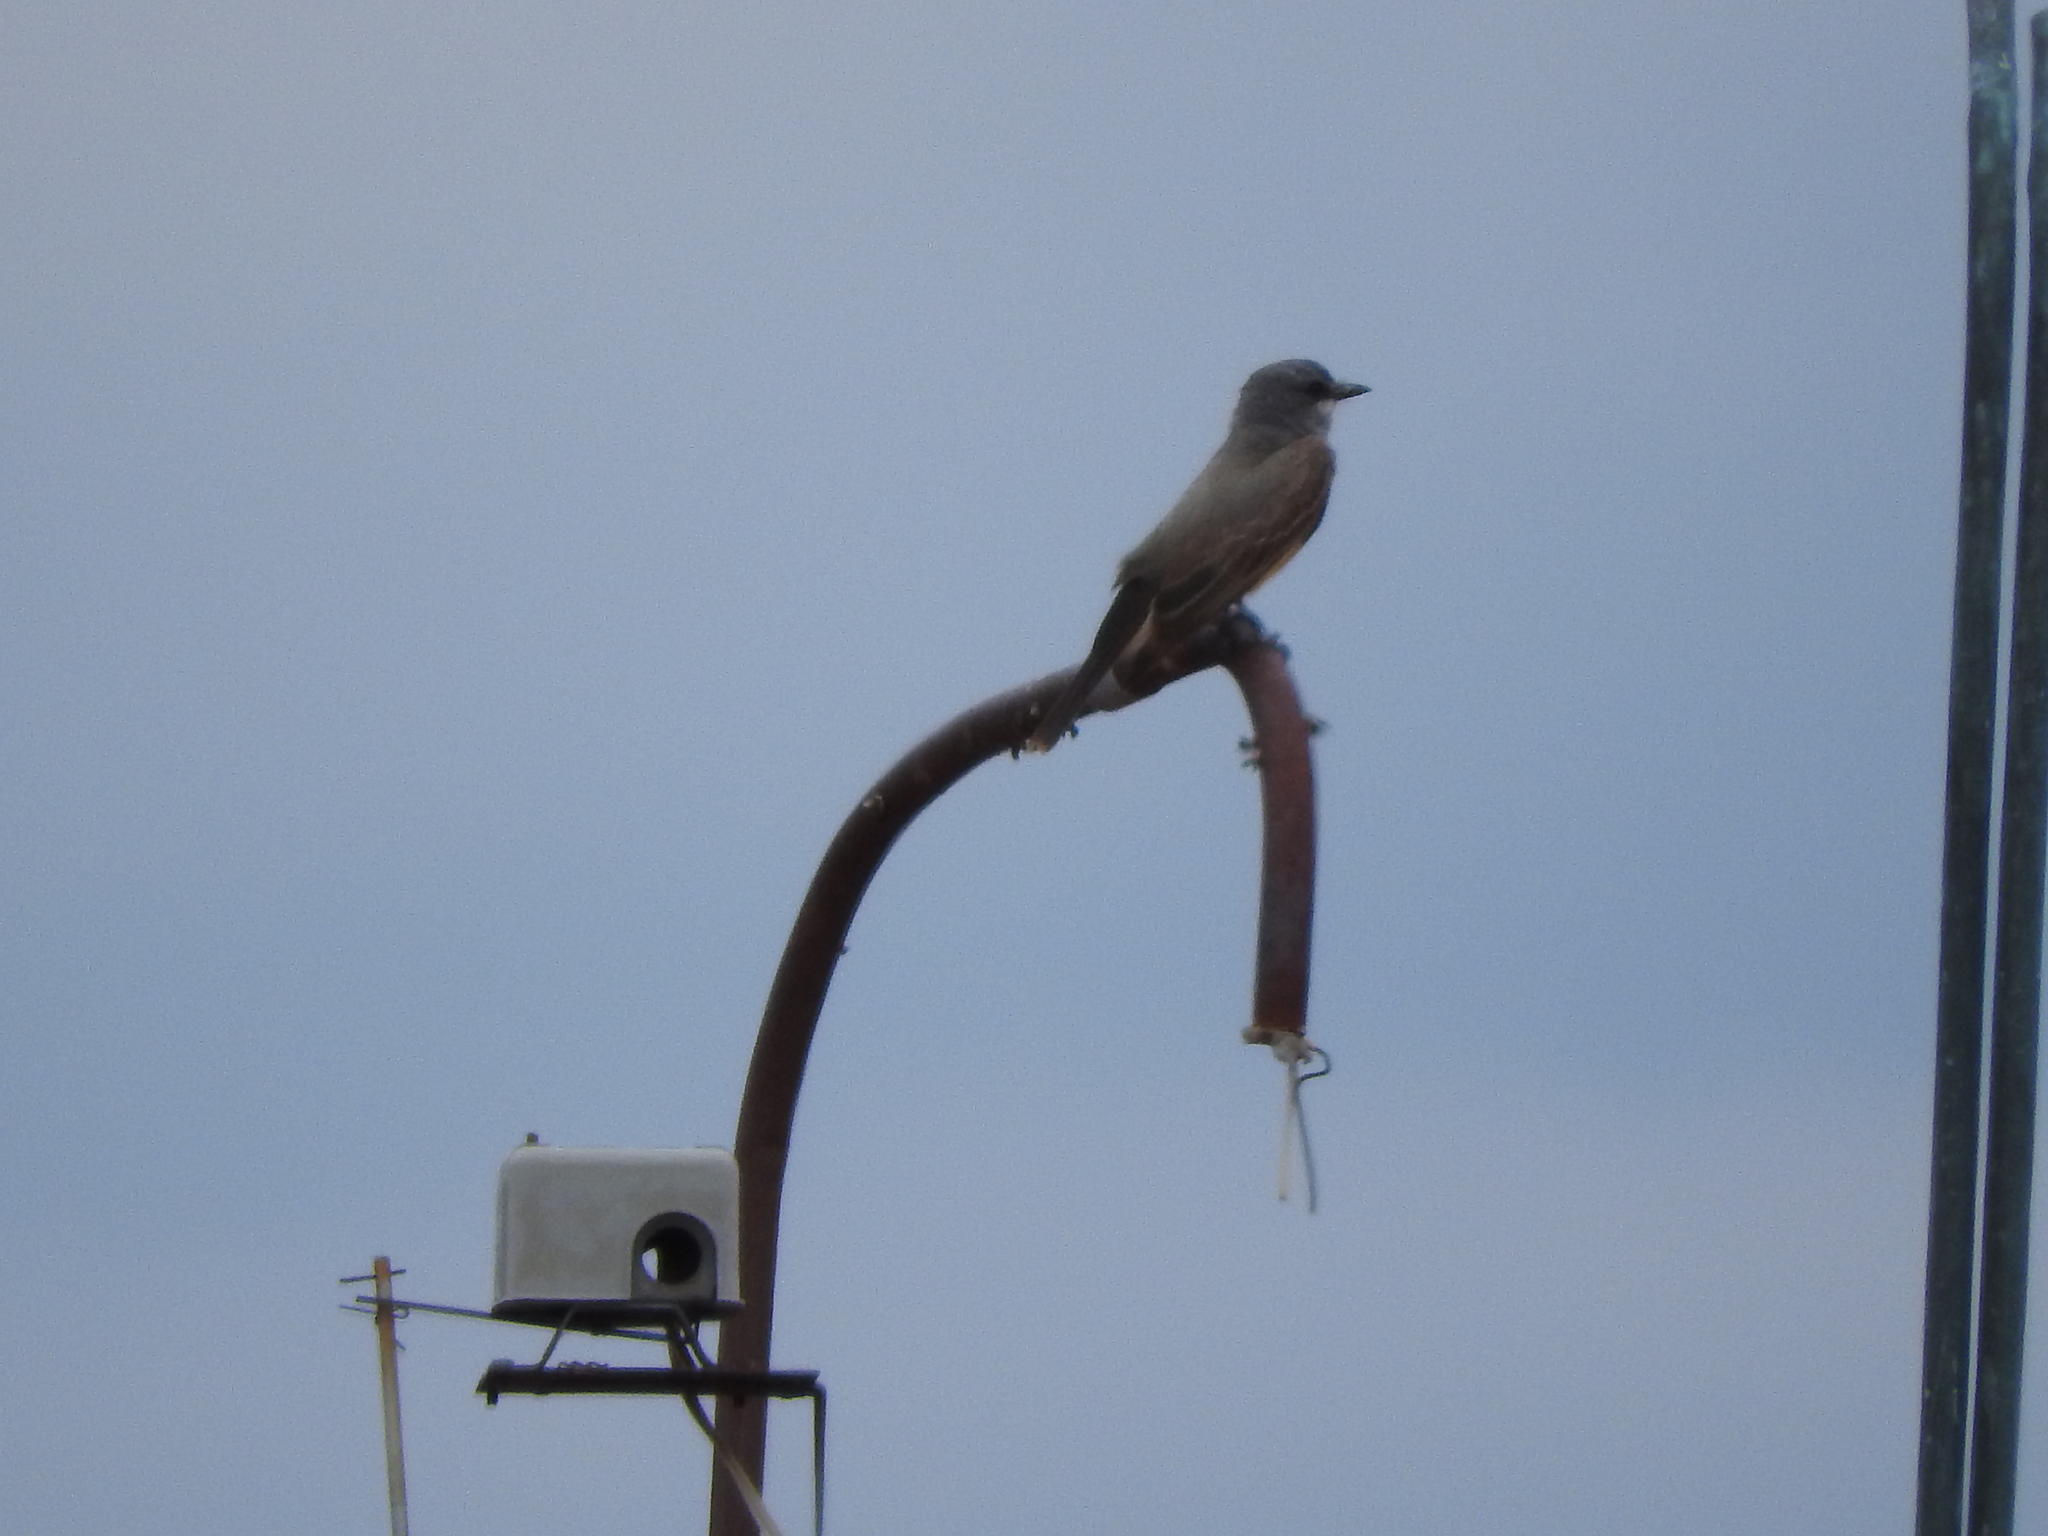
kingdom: Animalia
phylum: Chordata
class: Aves
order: Passeriformes
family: Tyrannidae
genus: Tyrannus
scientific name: Tyrannus vociferans
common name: Cassin's kingbird
